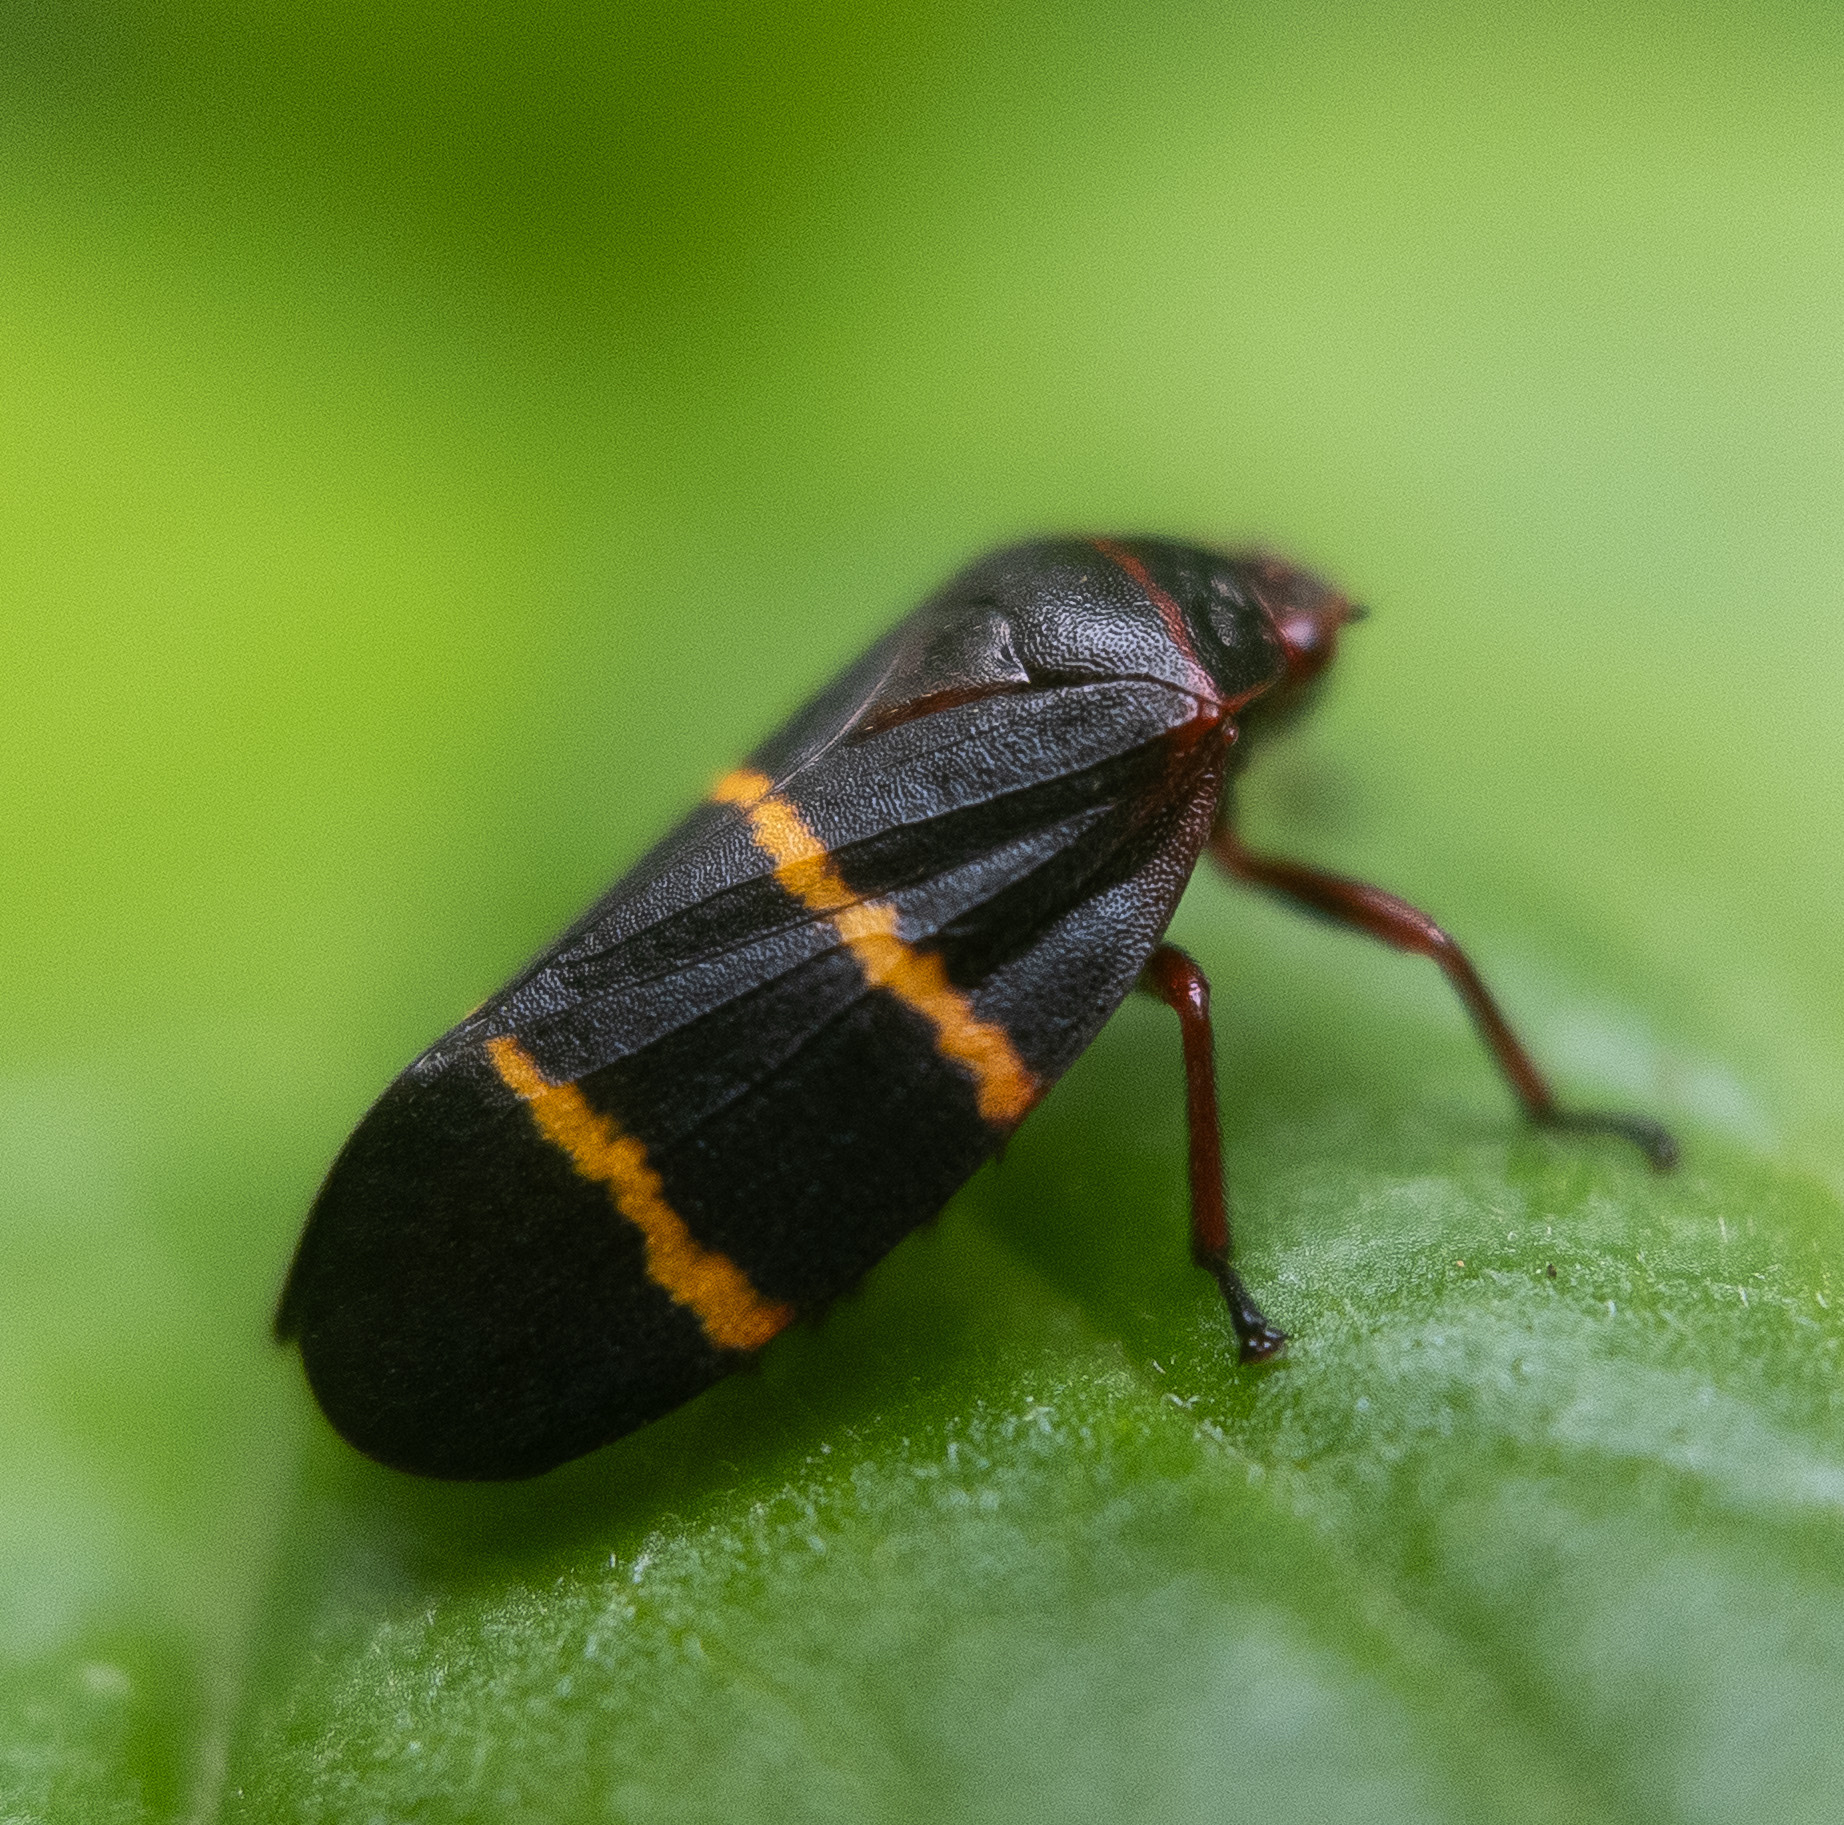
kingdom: Animalia
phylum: Arthropoda
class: Insecta
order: Hemiptera
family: Cercopidae
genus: Prosapia
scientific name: Prosapia bicincta
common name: Twolined spittlebug
